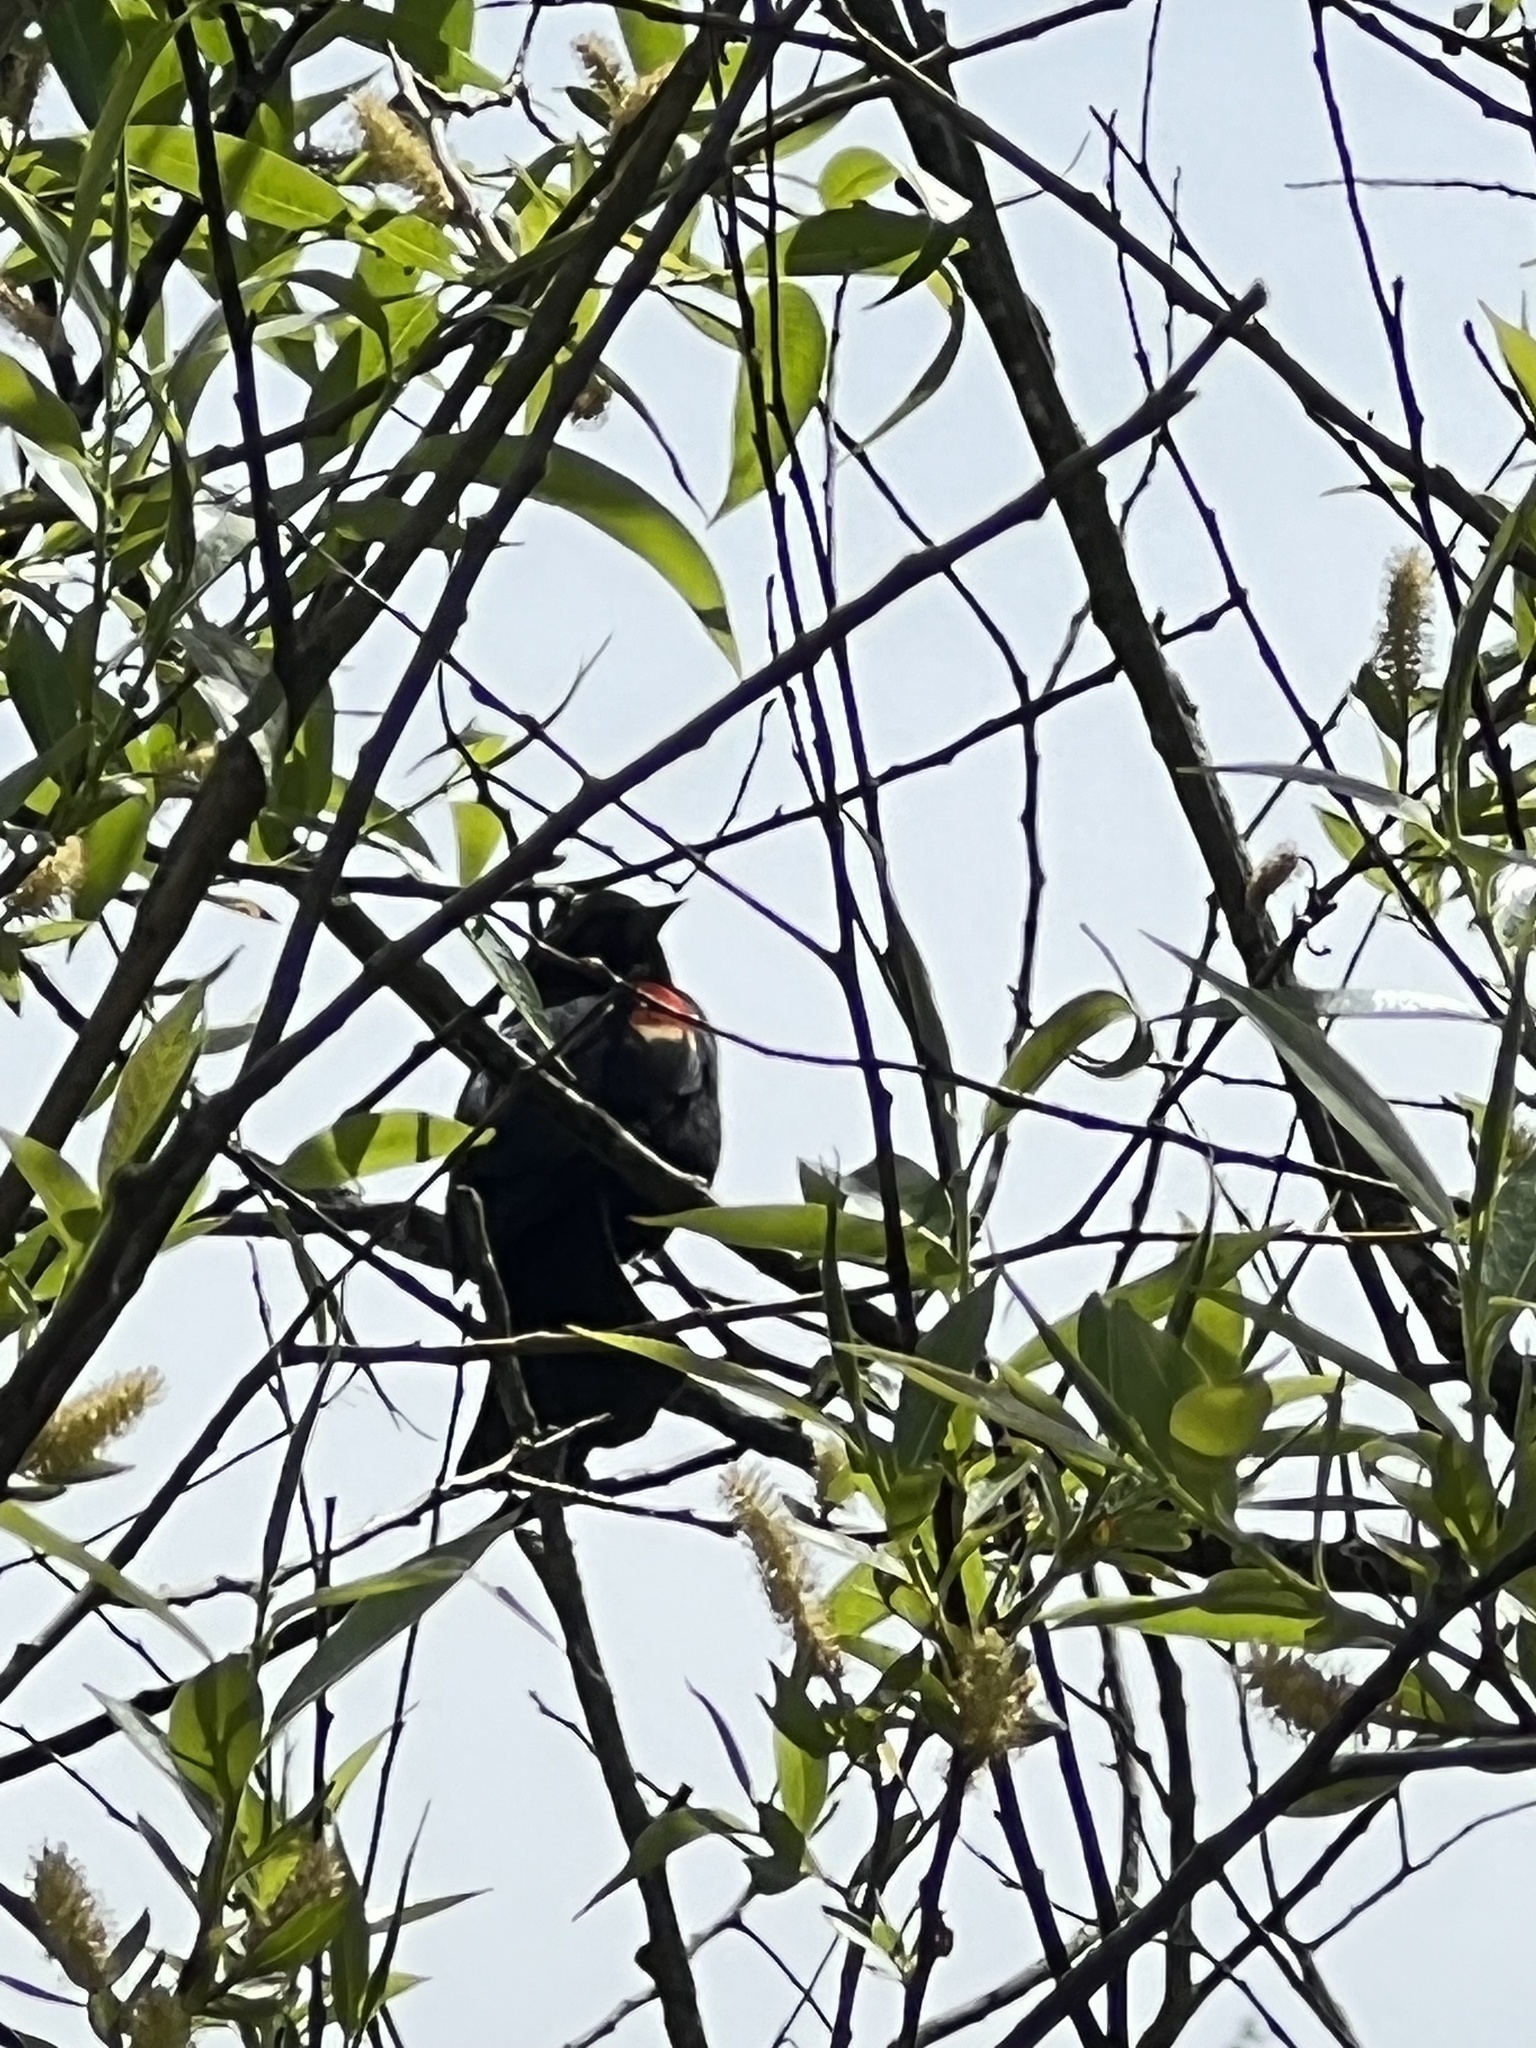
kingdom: Animalia
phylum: Chordata
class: Aves
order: Passeriformes
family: Icteridae
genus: Agelaius
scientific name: Agelaius phoeniceus
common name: Red-winged blackbird
